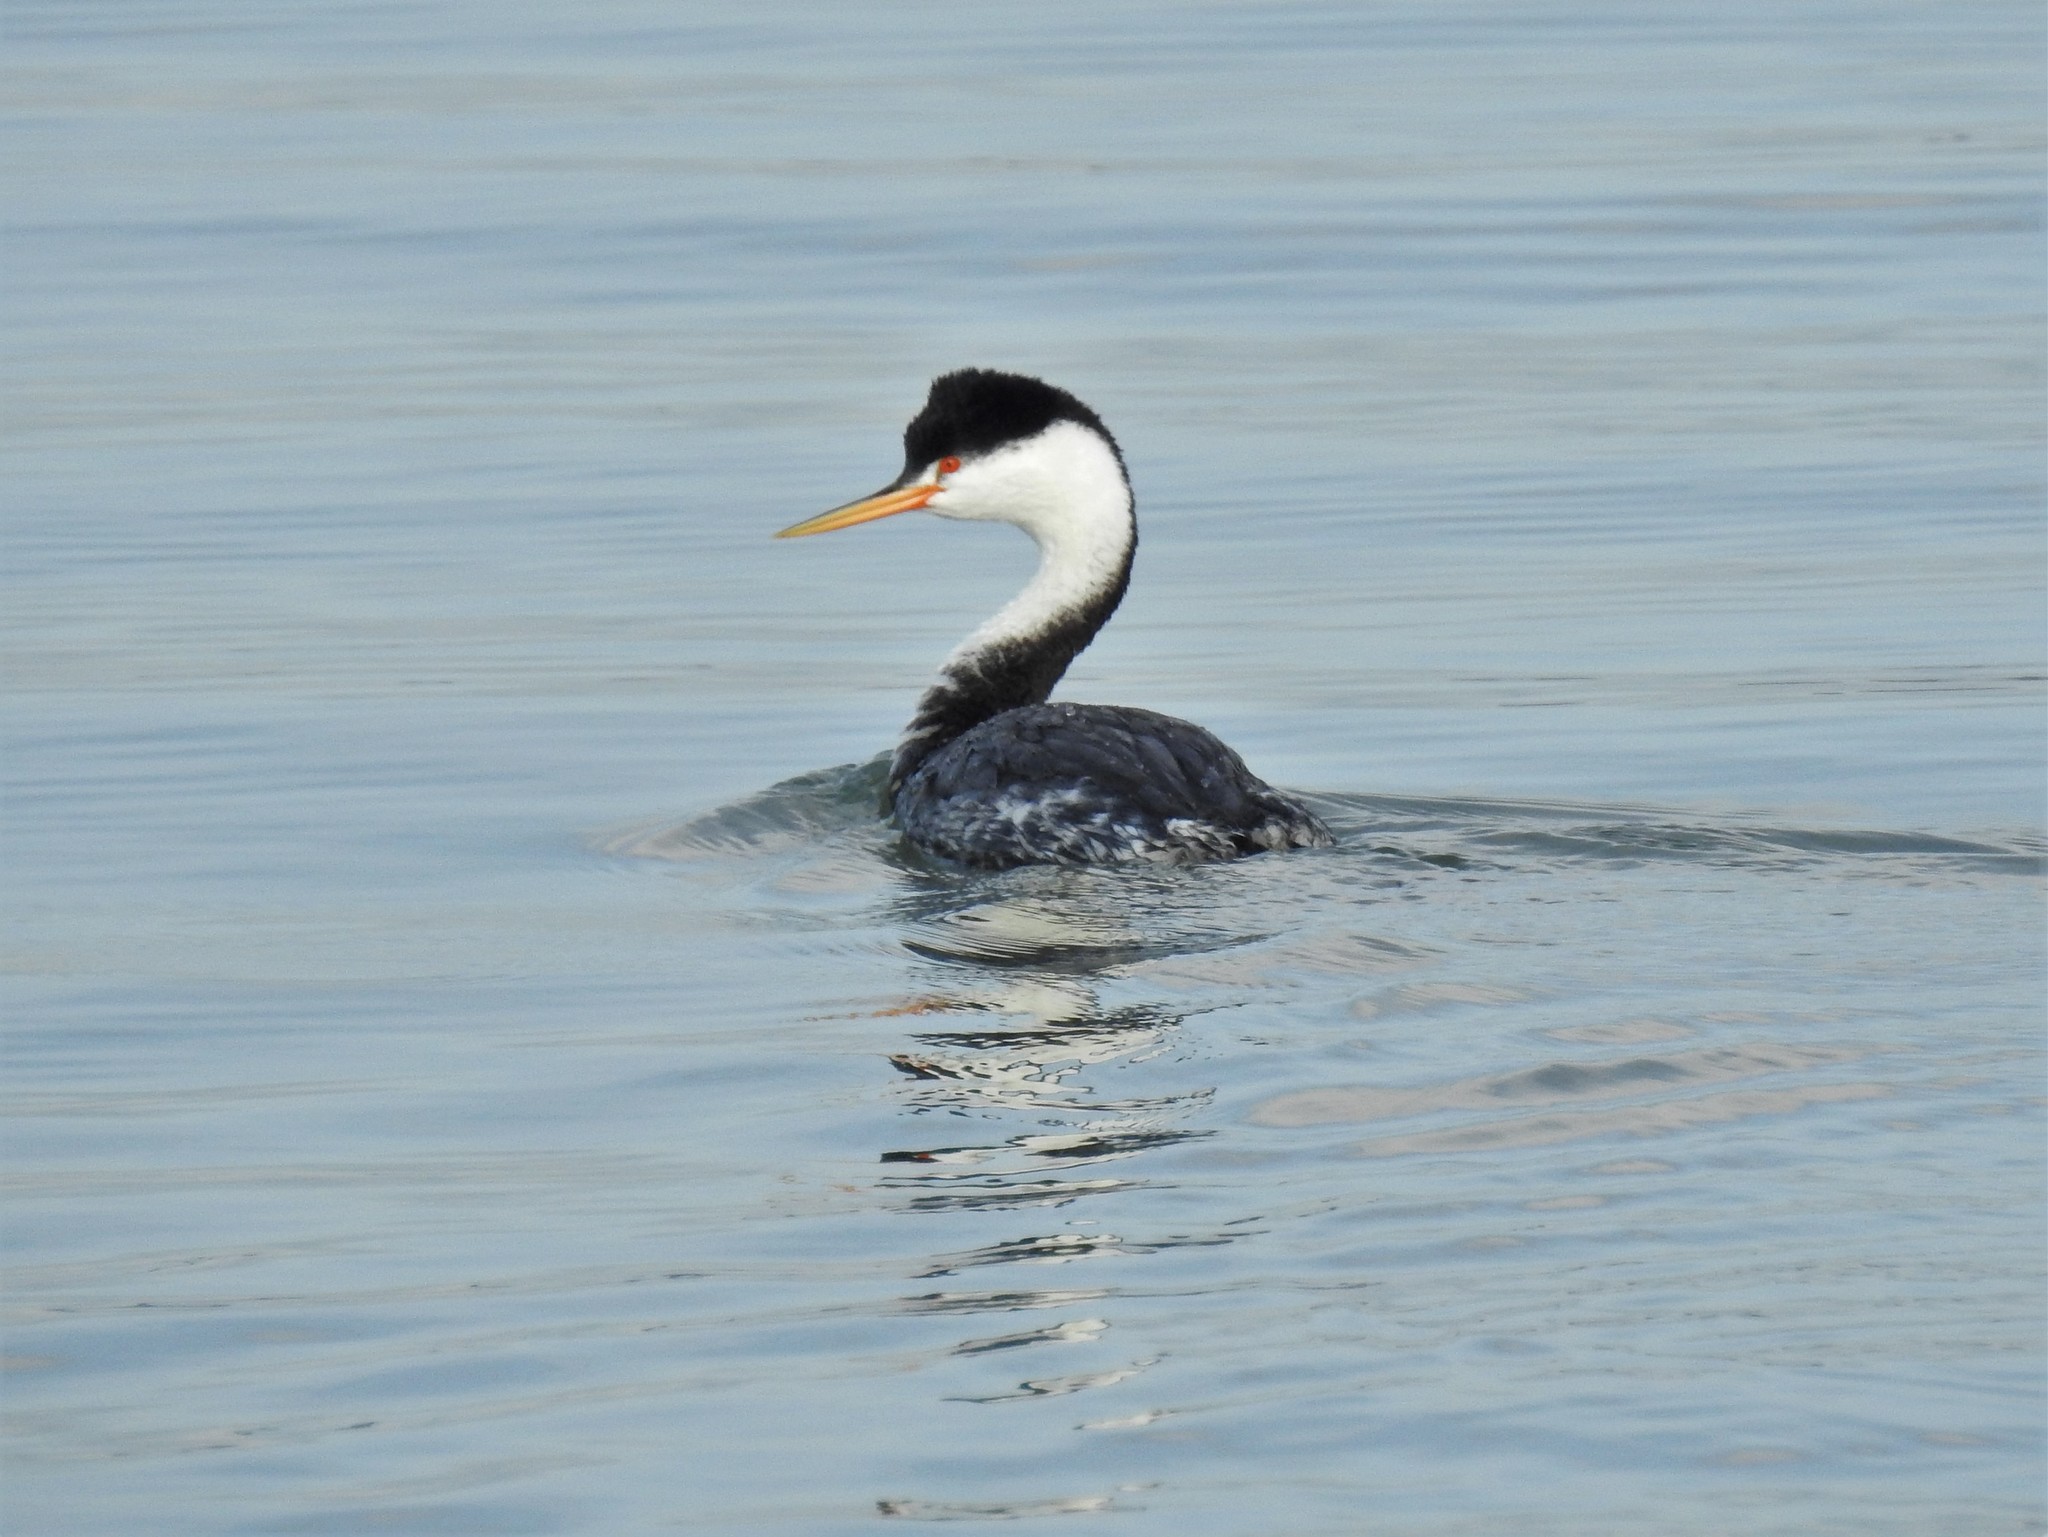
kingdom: Animalia
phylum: Chordata
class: Aves
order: Podicipediformes
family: Podicipedidae
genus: Aechmophorus
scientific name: Aechmophorus clarkii
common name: Clark's grebe
